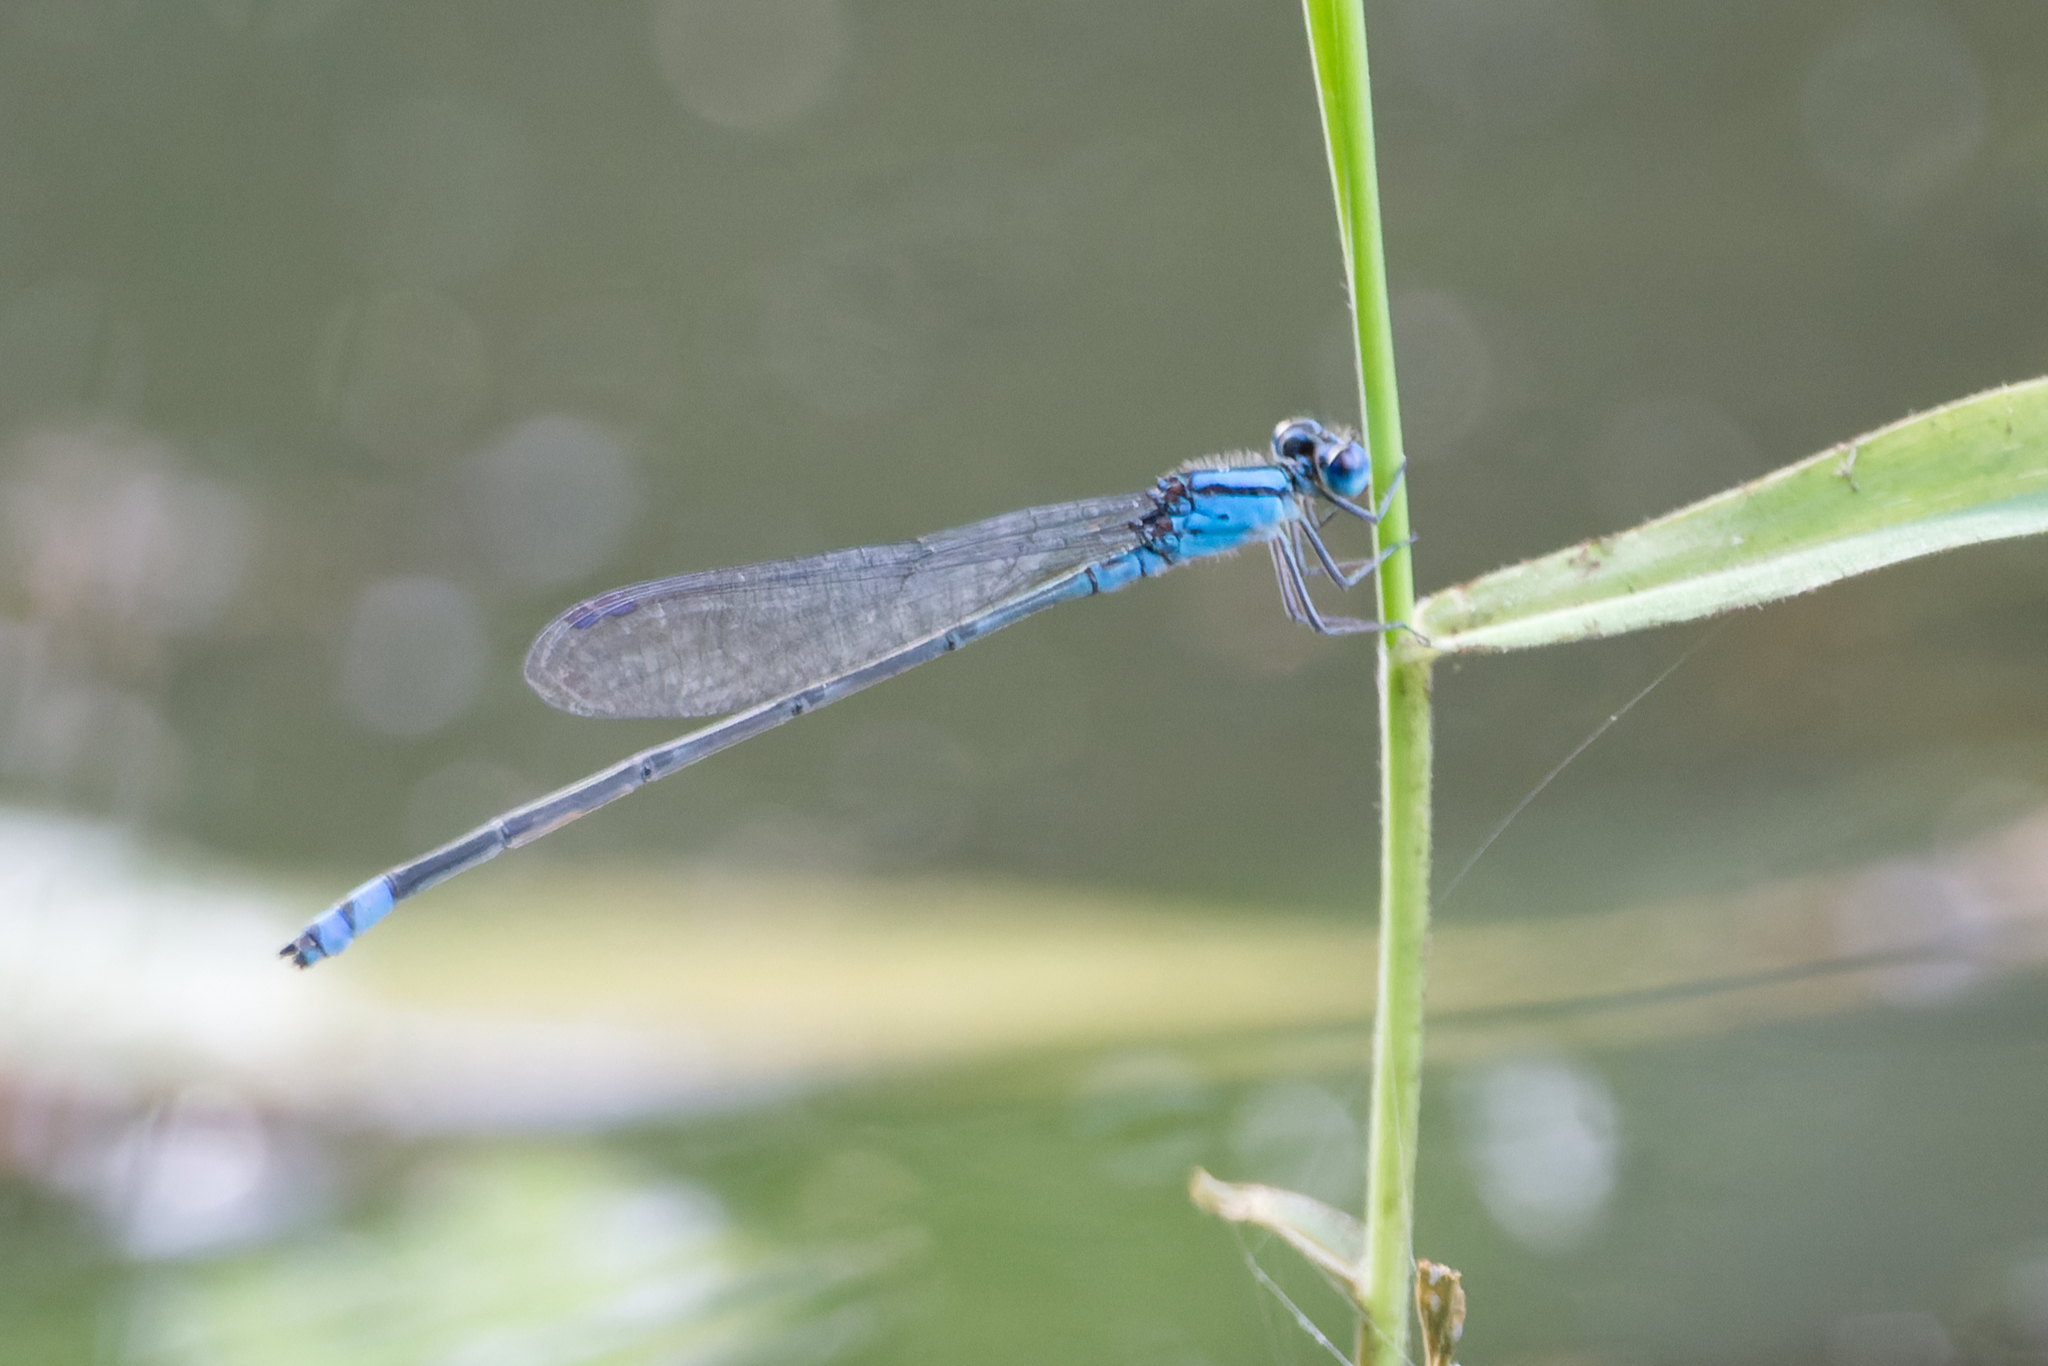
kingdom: Animalia
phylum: Arthropoda
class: Insecta
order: Odonata
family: Coenagrionidae
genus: Pseudagrion
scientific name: Pseudagrion microcephalum
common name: Blue riverdamsel
